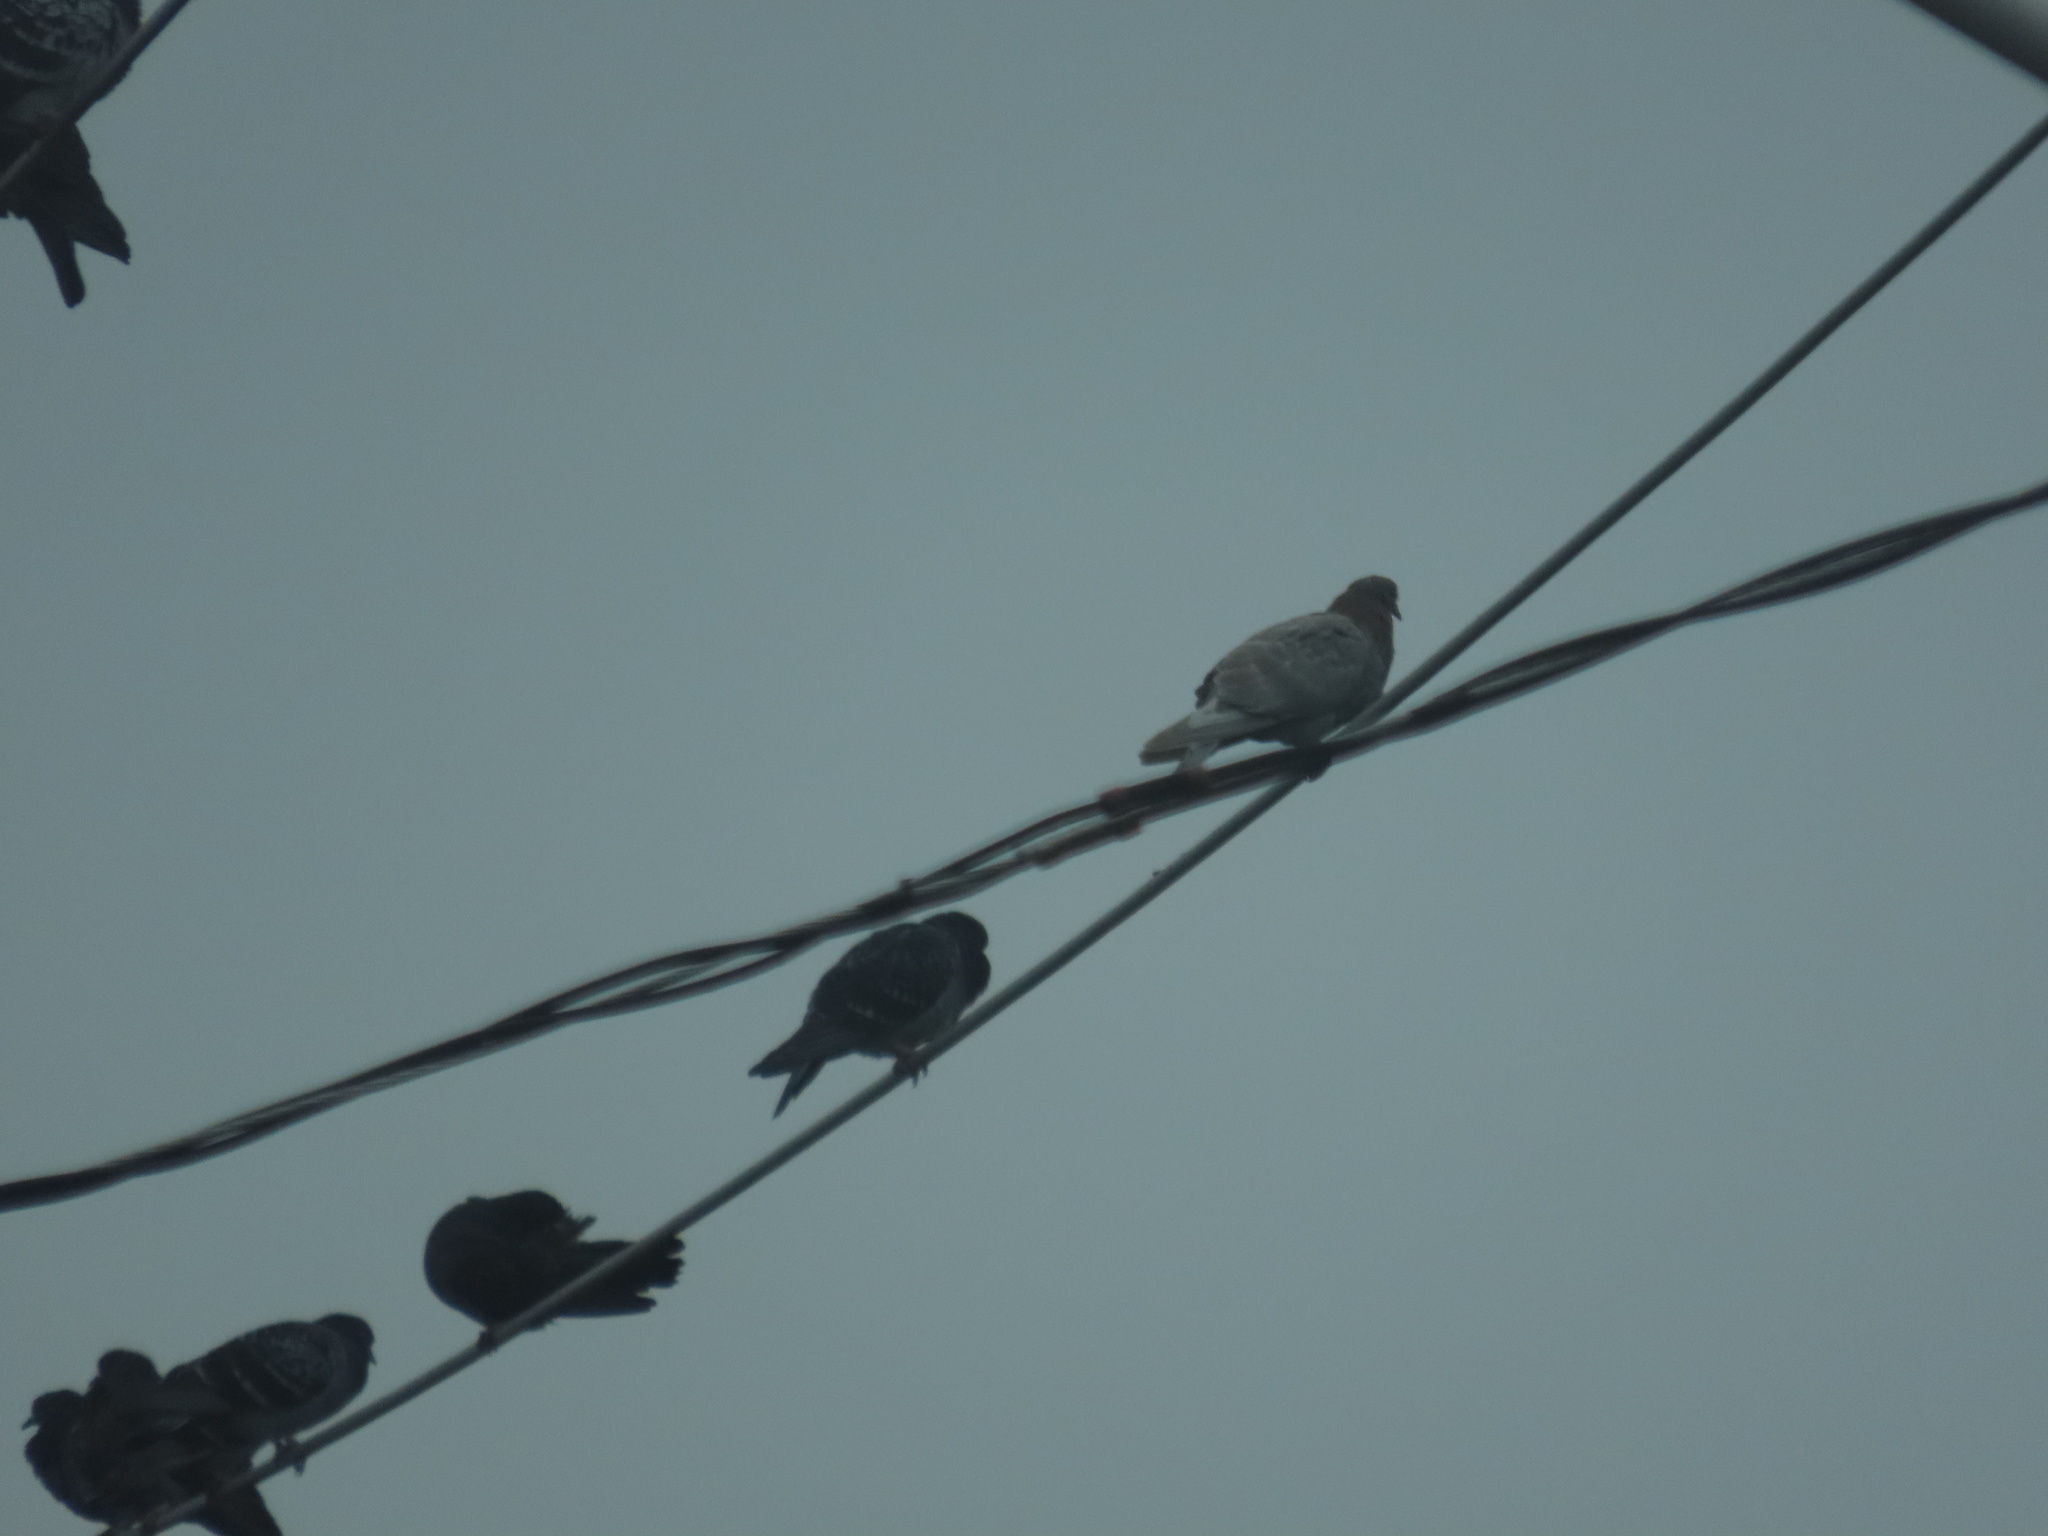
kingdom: Animalia
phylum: Chordata
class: Aves
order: Columbiformes
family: Columbidae
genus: Columba
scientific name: Columba livia
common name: Rock pigeon
